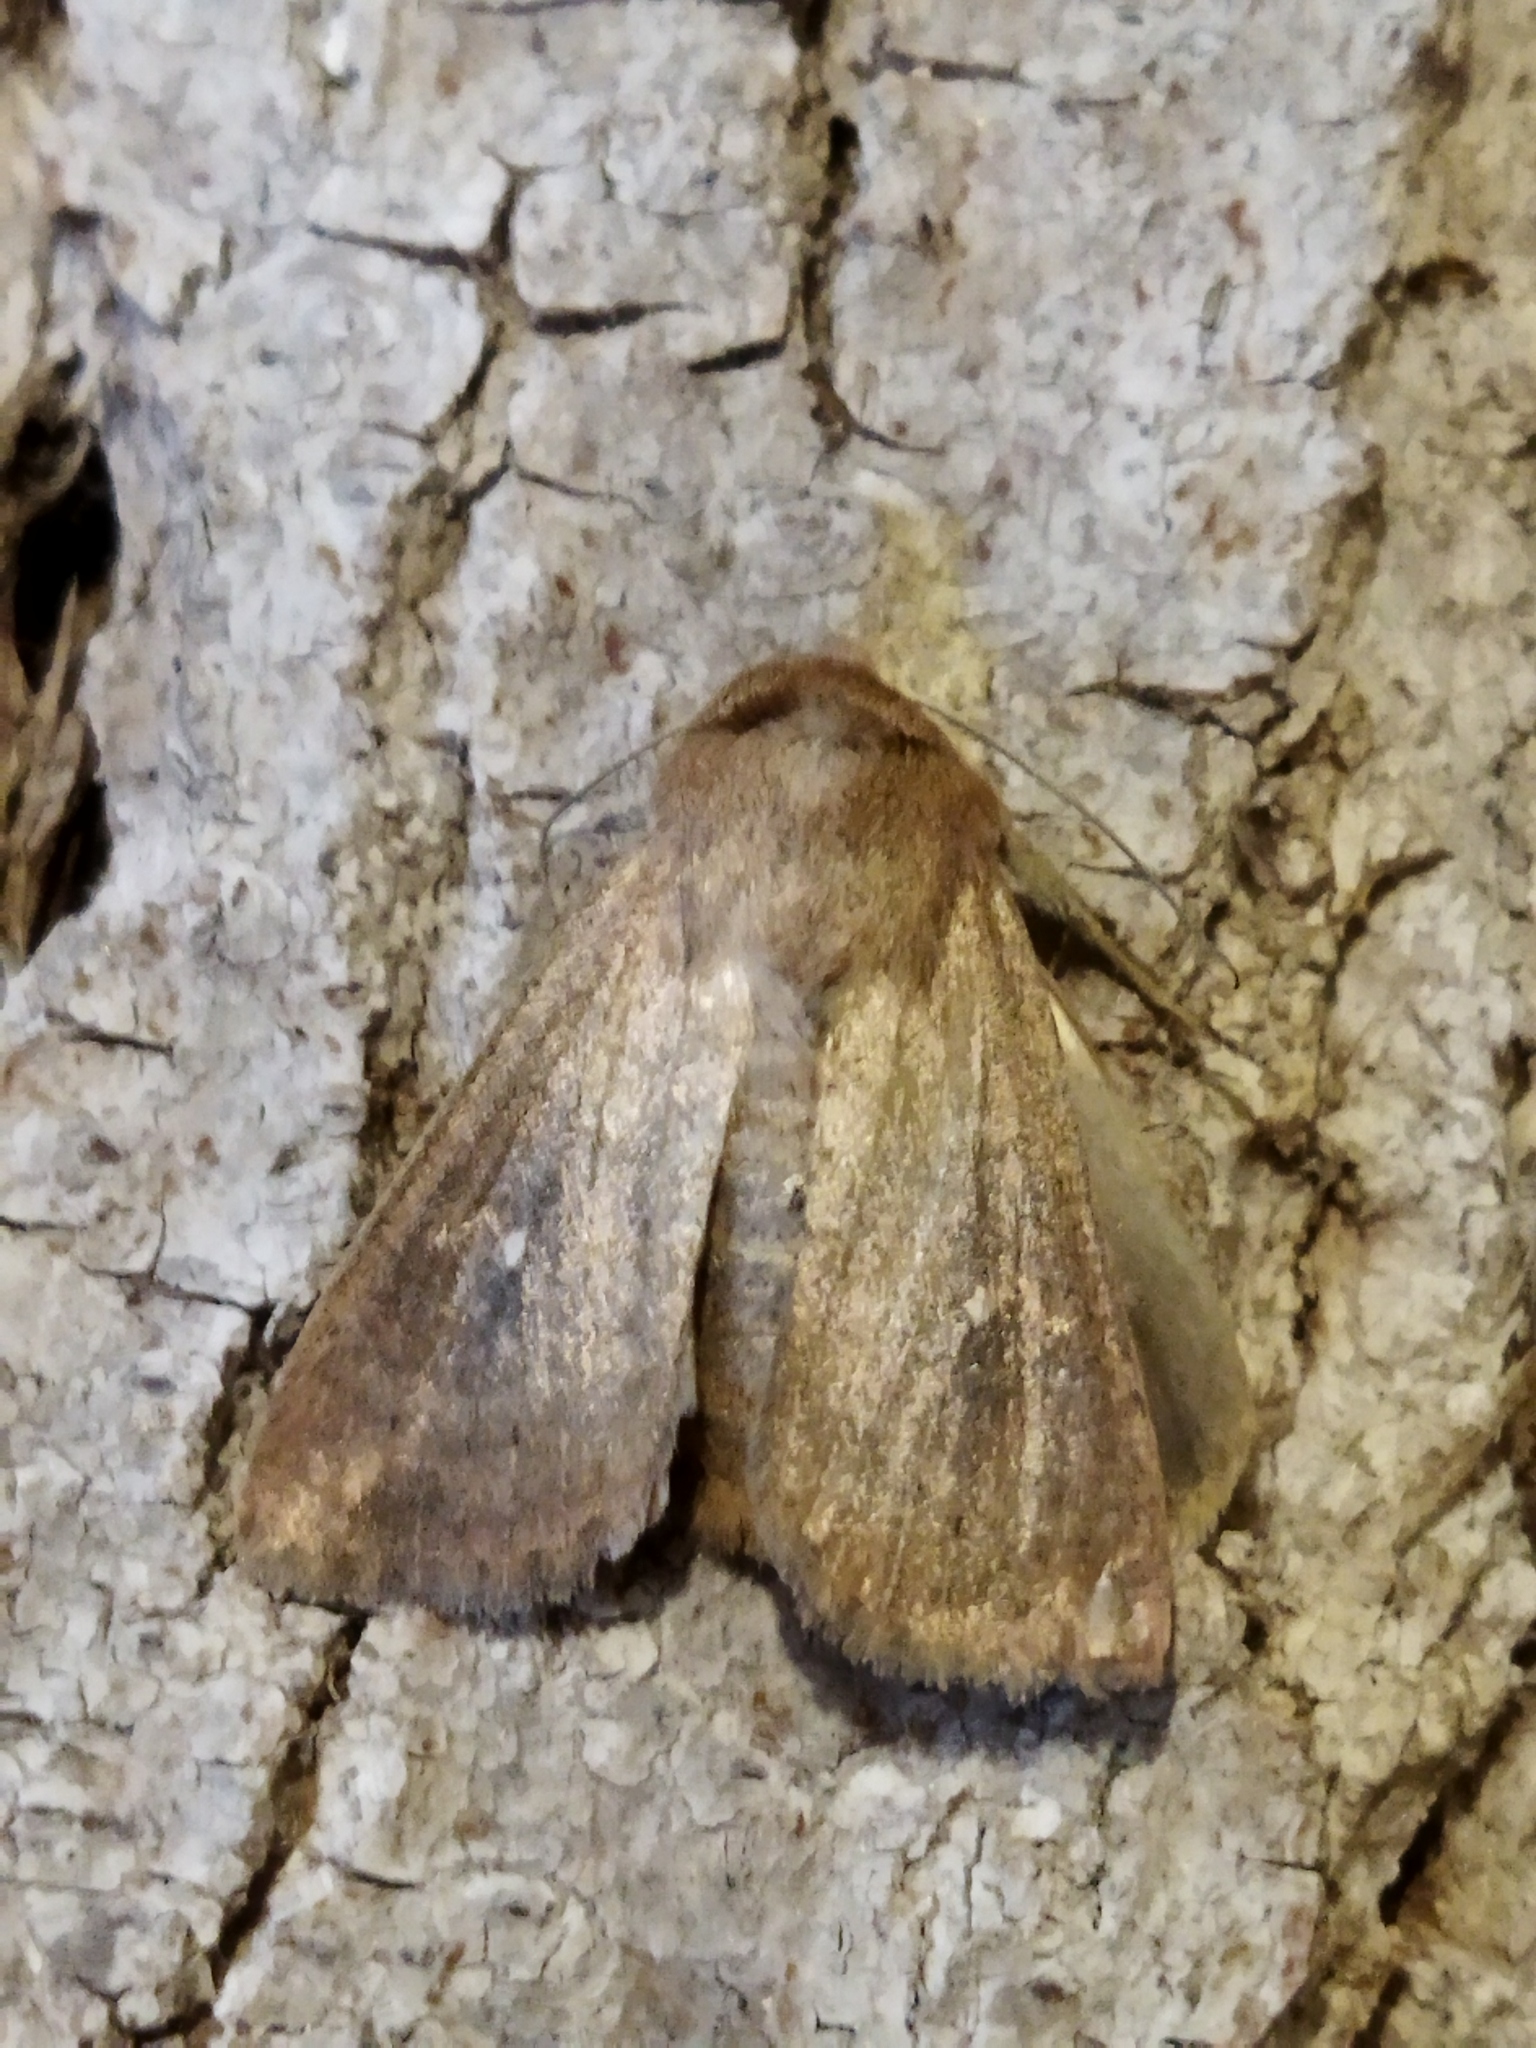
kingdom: Animalia
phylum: Arthropoda
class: Insecta
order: Lepidoptera
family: Noctuidae
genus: Mythimna
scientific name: Mythimna albipuncta
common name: White-point
